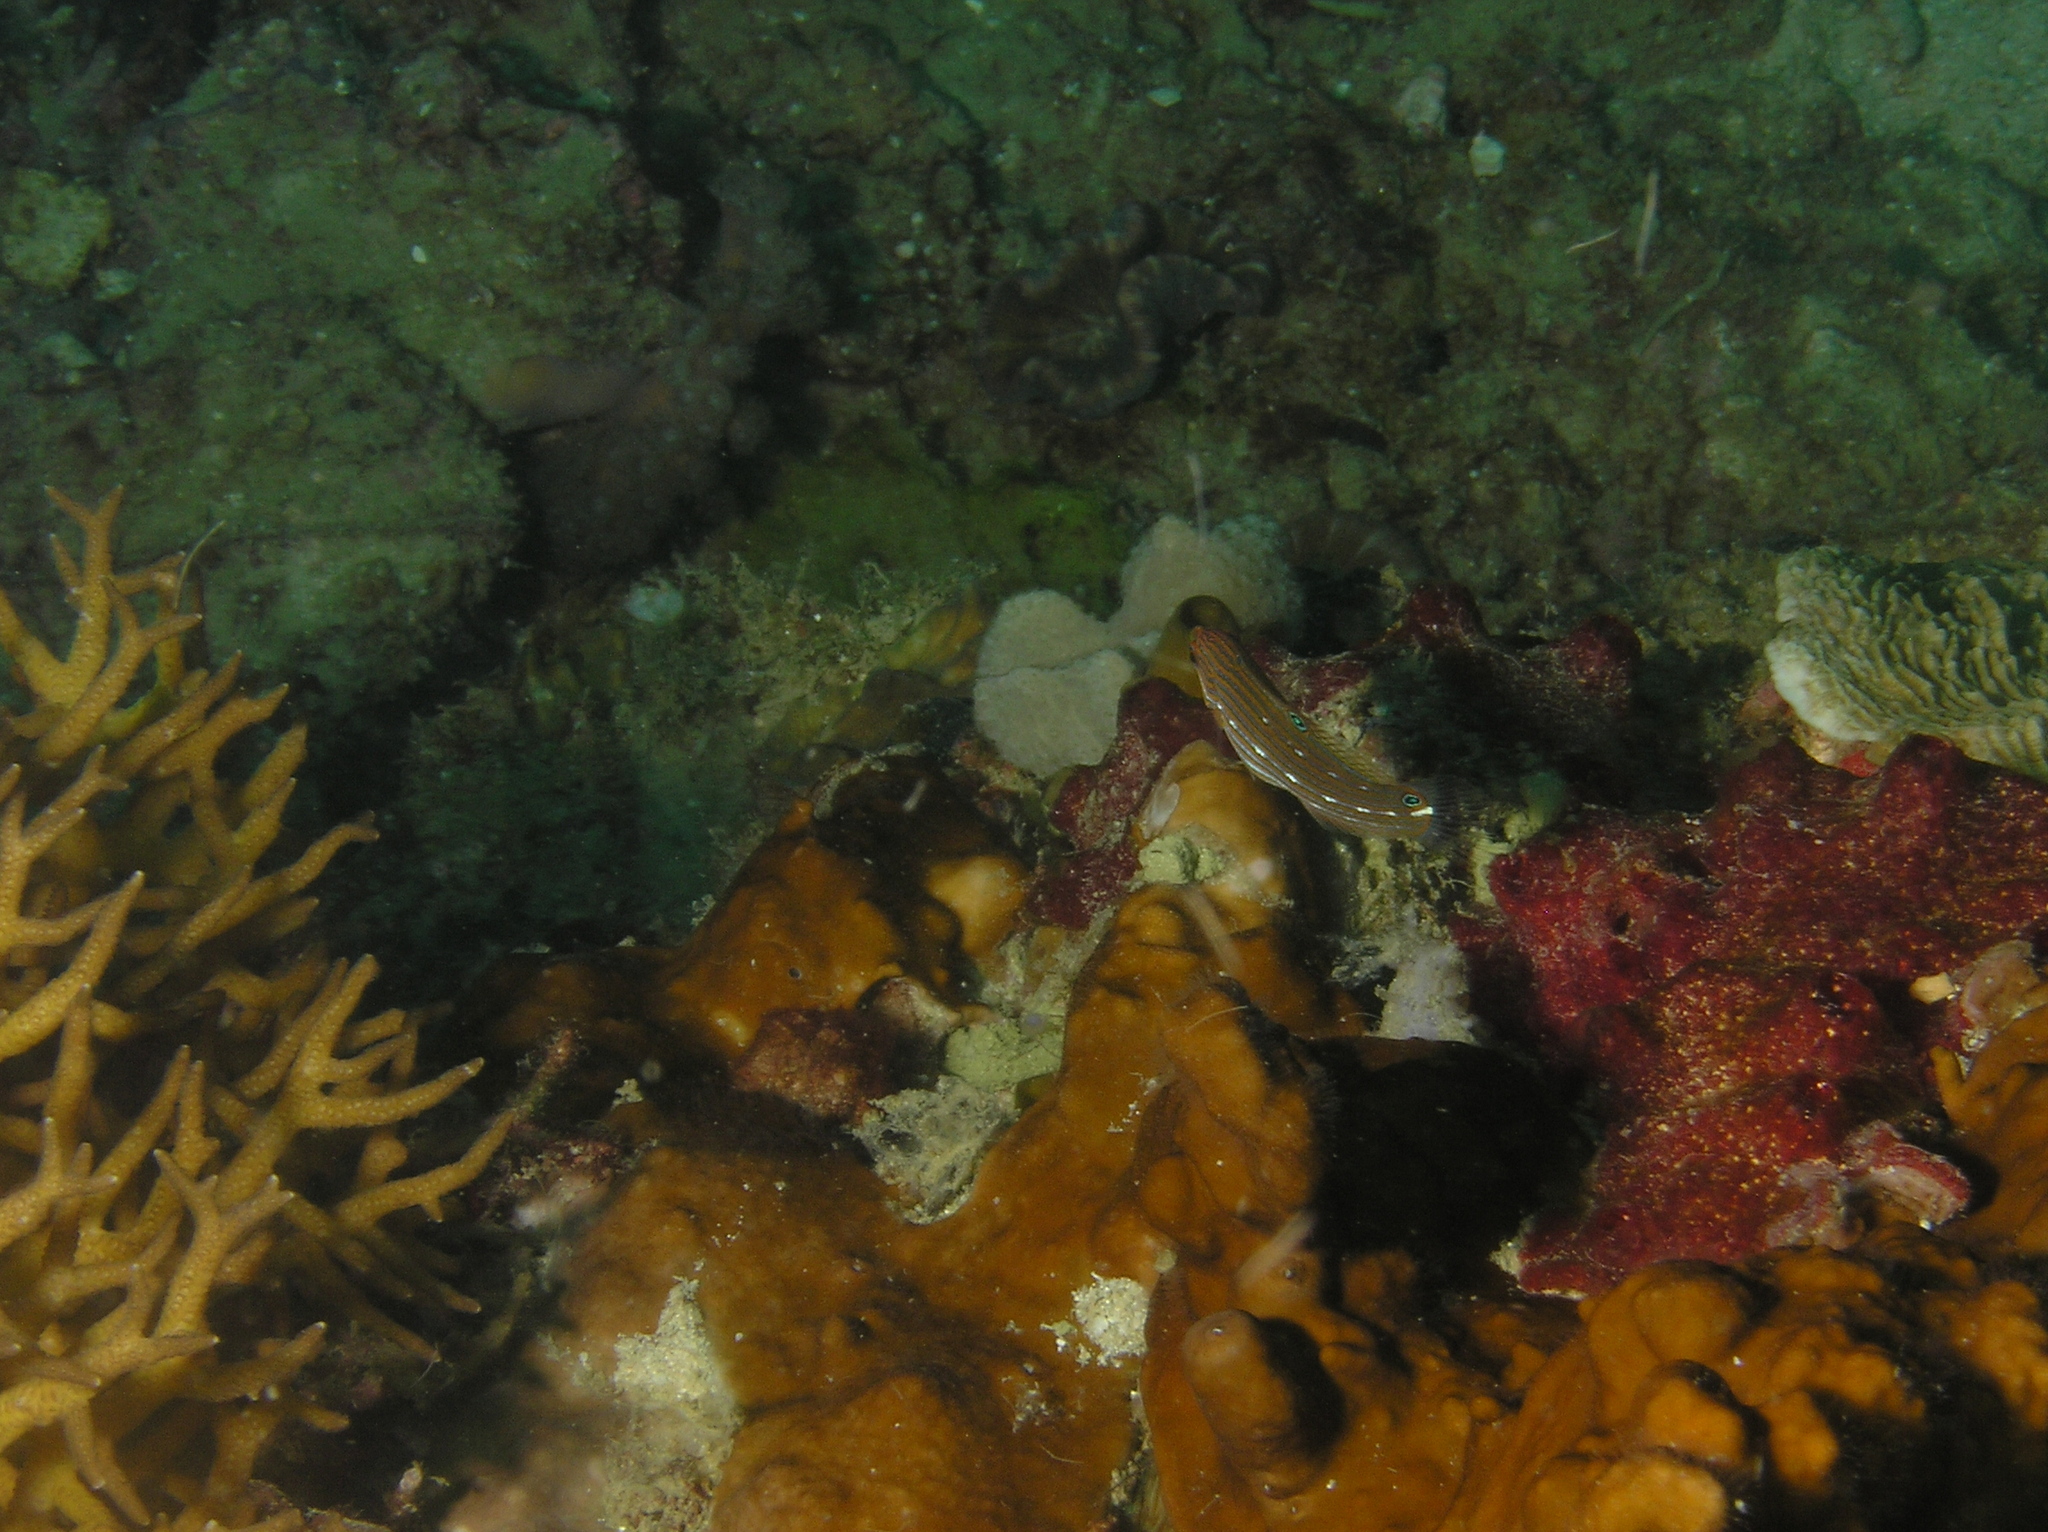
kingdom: Animalia
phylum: Chordata
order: Perciformes
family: Labridae
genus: Halichoeres
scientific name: Halichoeres melanurus
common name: Hoeven's wrasse
